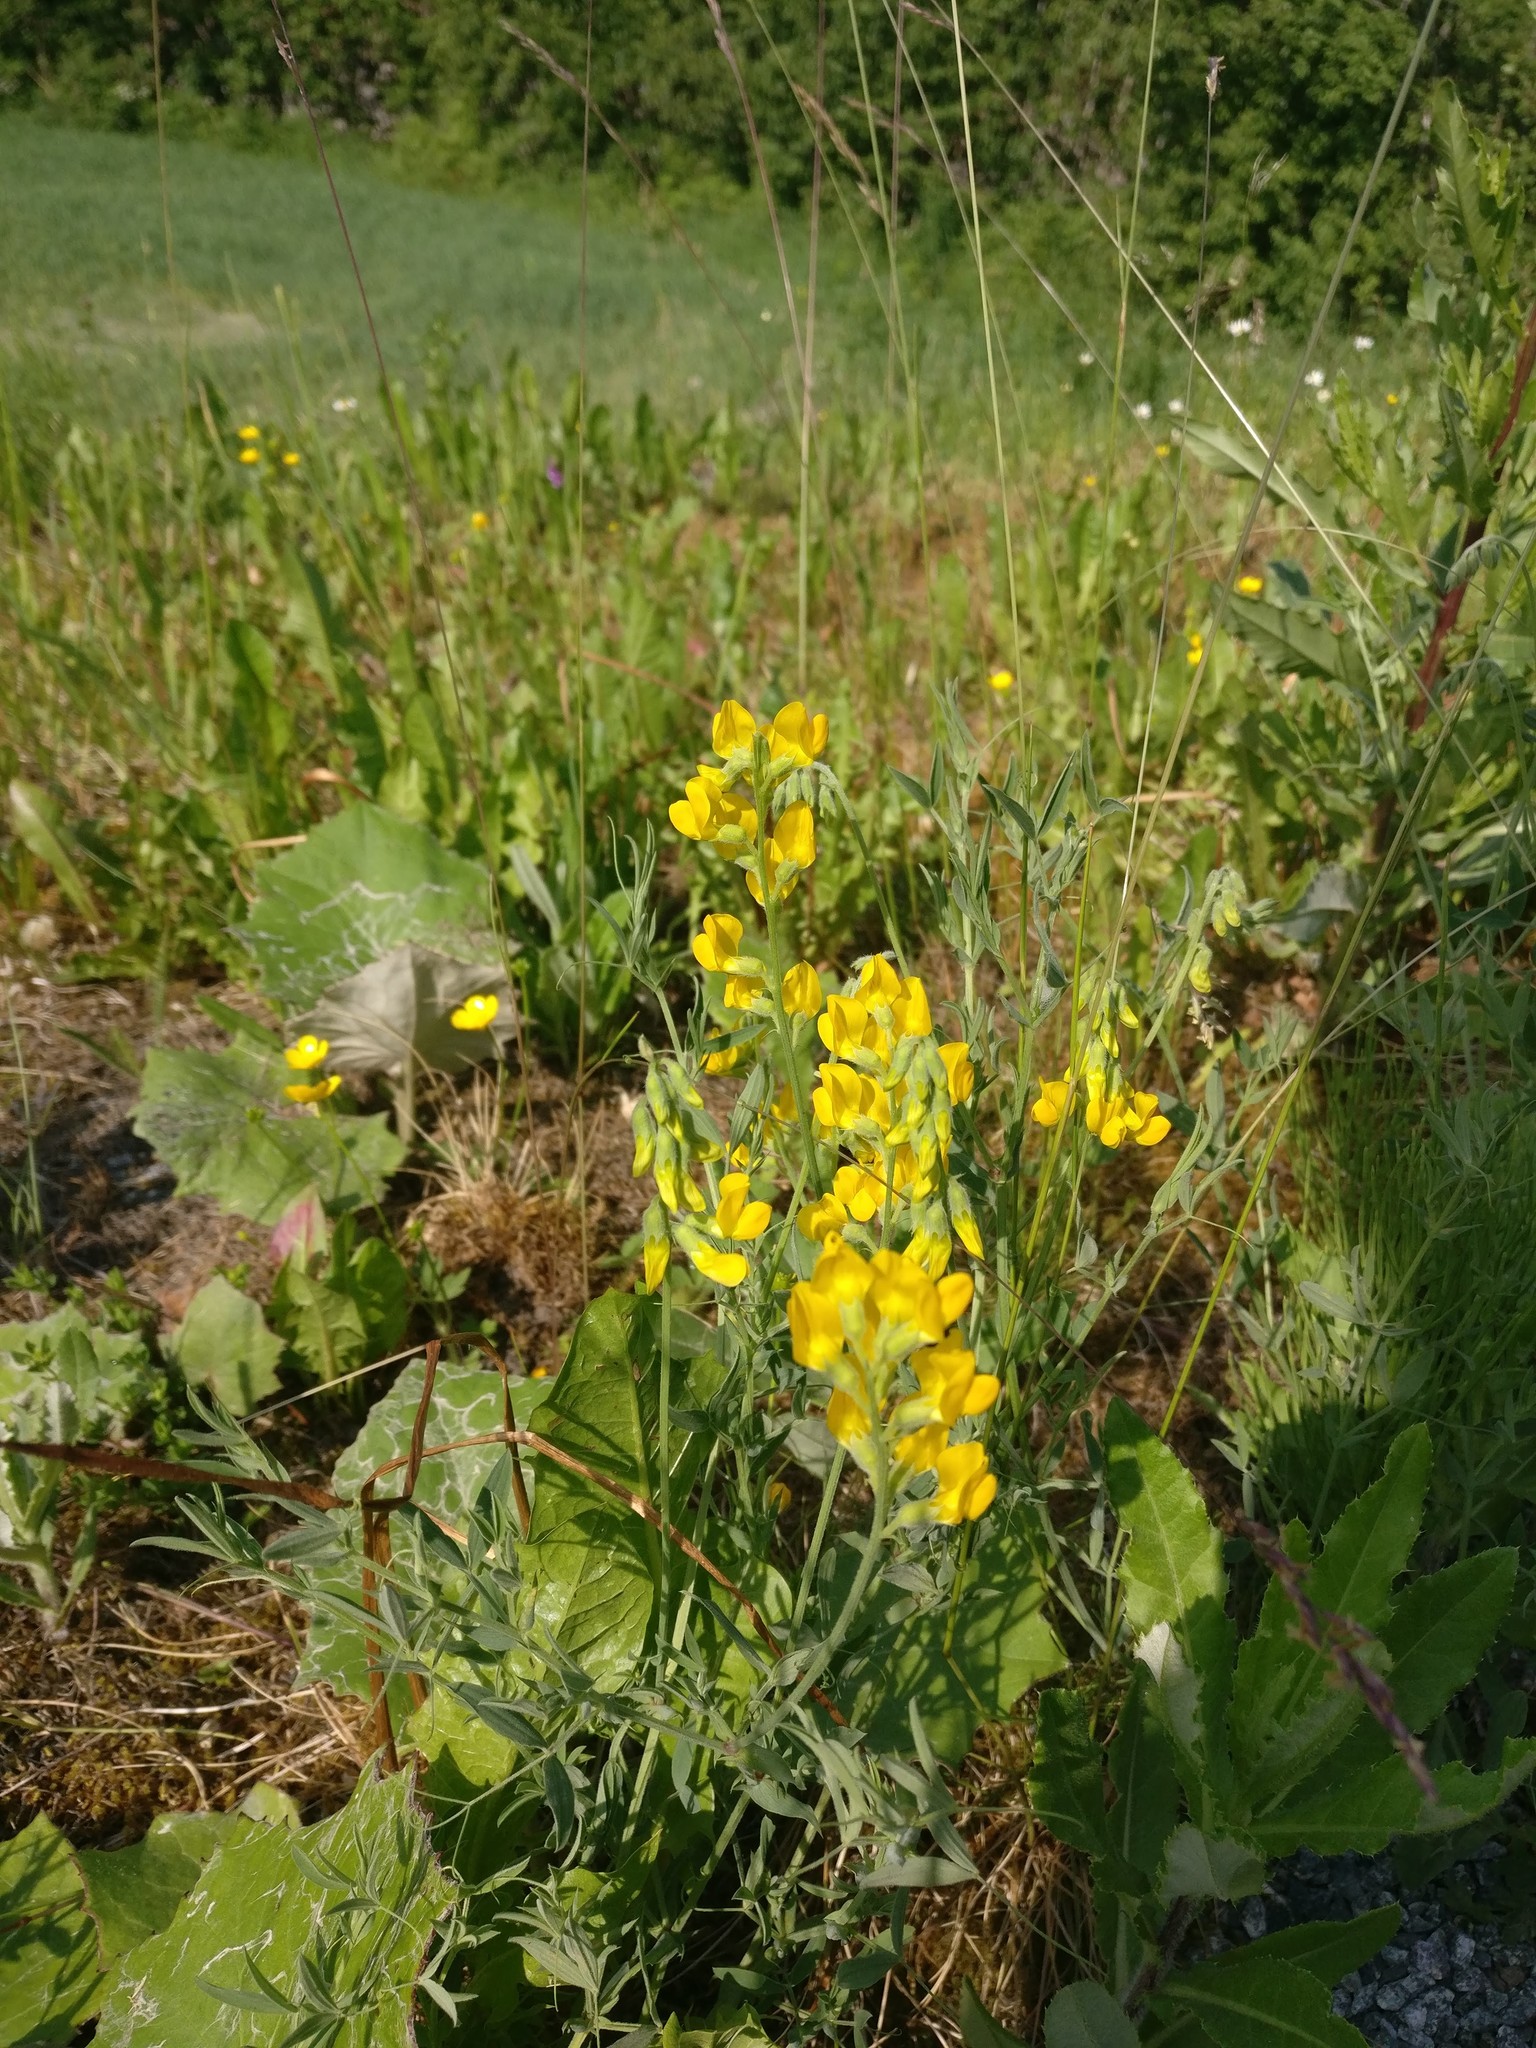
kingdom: Plantae
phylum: Tracheophyta
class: Magnoliopsida
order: Fabales
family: Fabaceae
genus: Lathyrus
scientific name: Lathyrus pratensis
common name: Meadow vetchling
